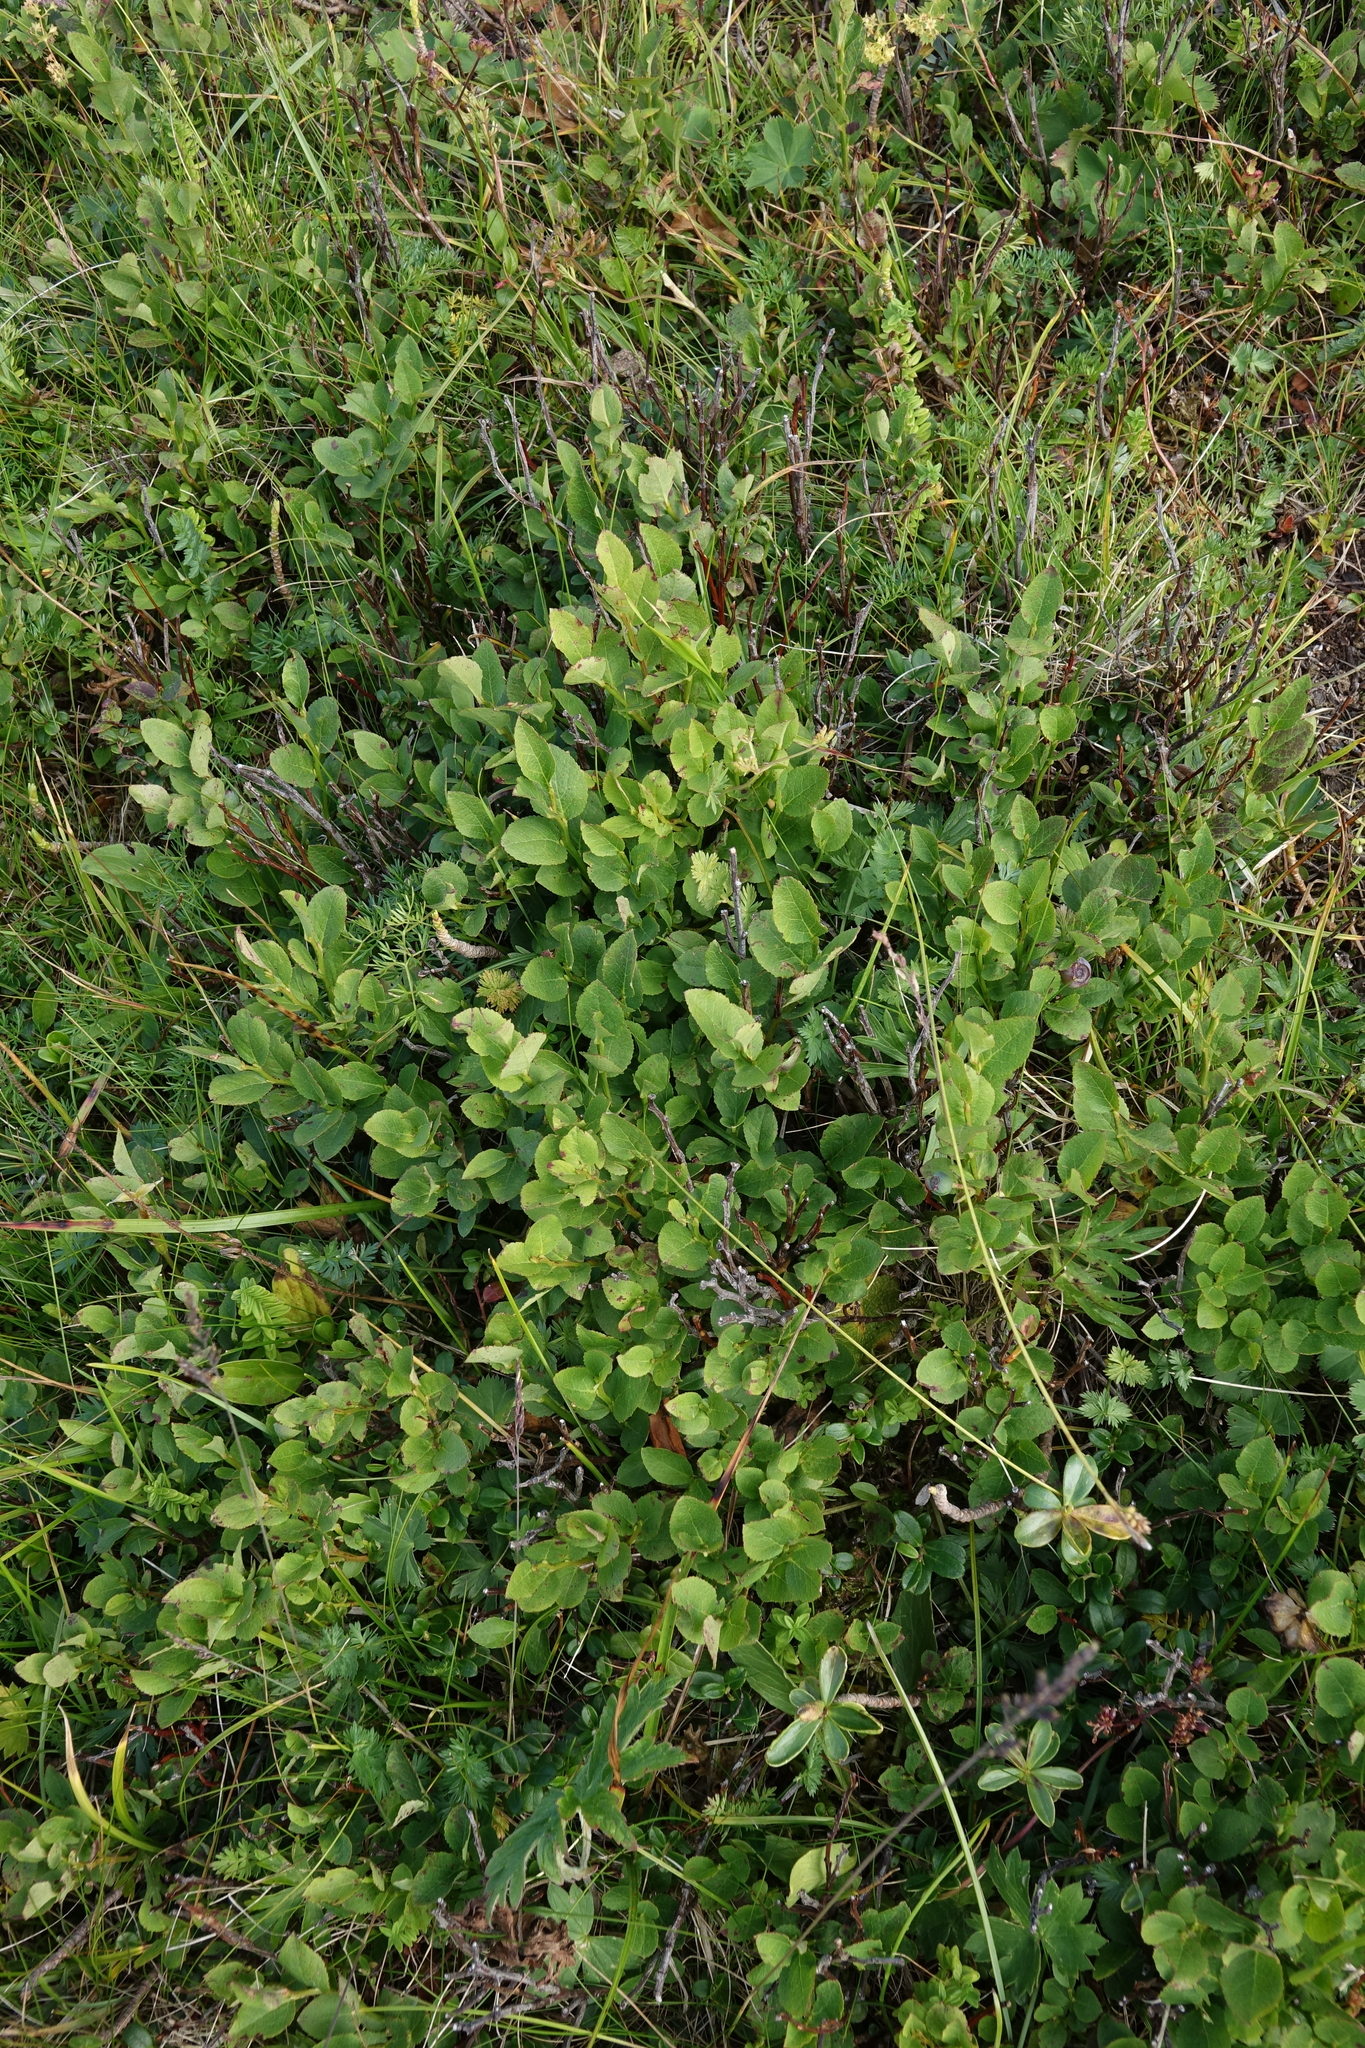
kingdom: Plantae
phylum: Tracheophyta
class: Magnoliopsida
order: Ericales
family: Ericaceae
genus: Vaccinium
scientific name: Vaccinium myrtillus
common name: Bilberry
